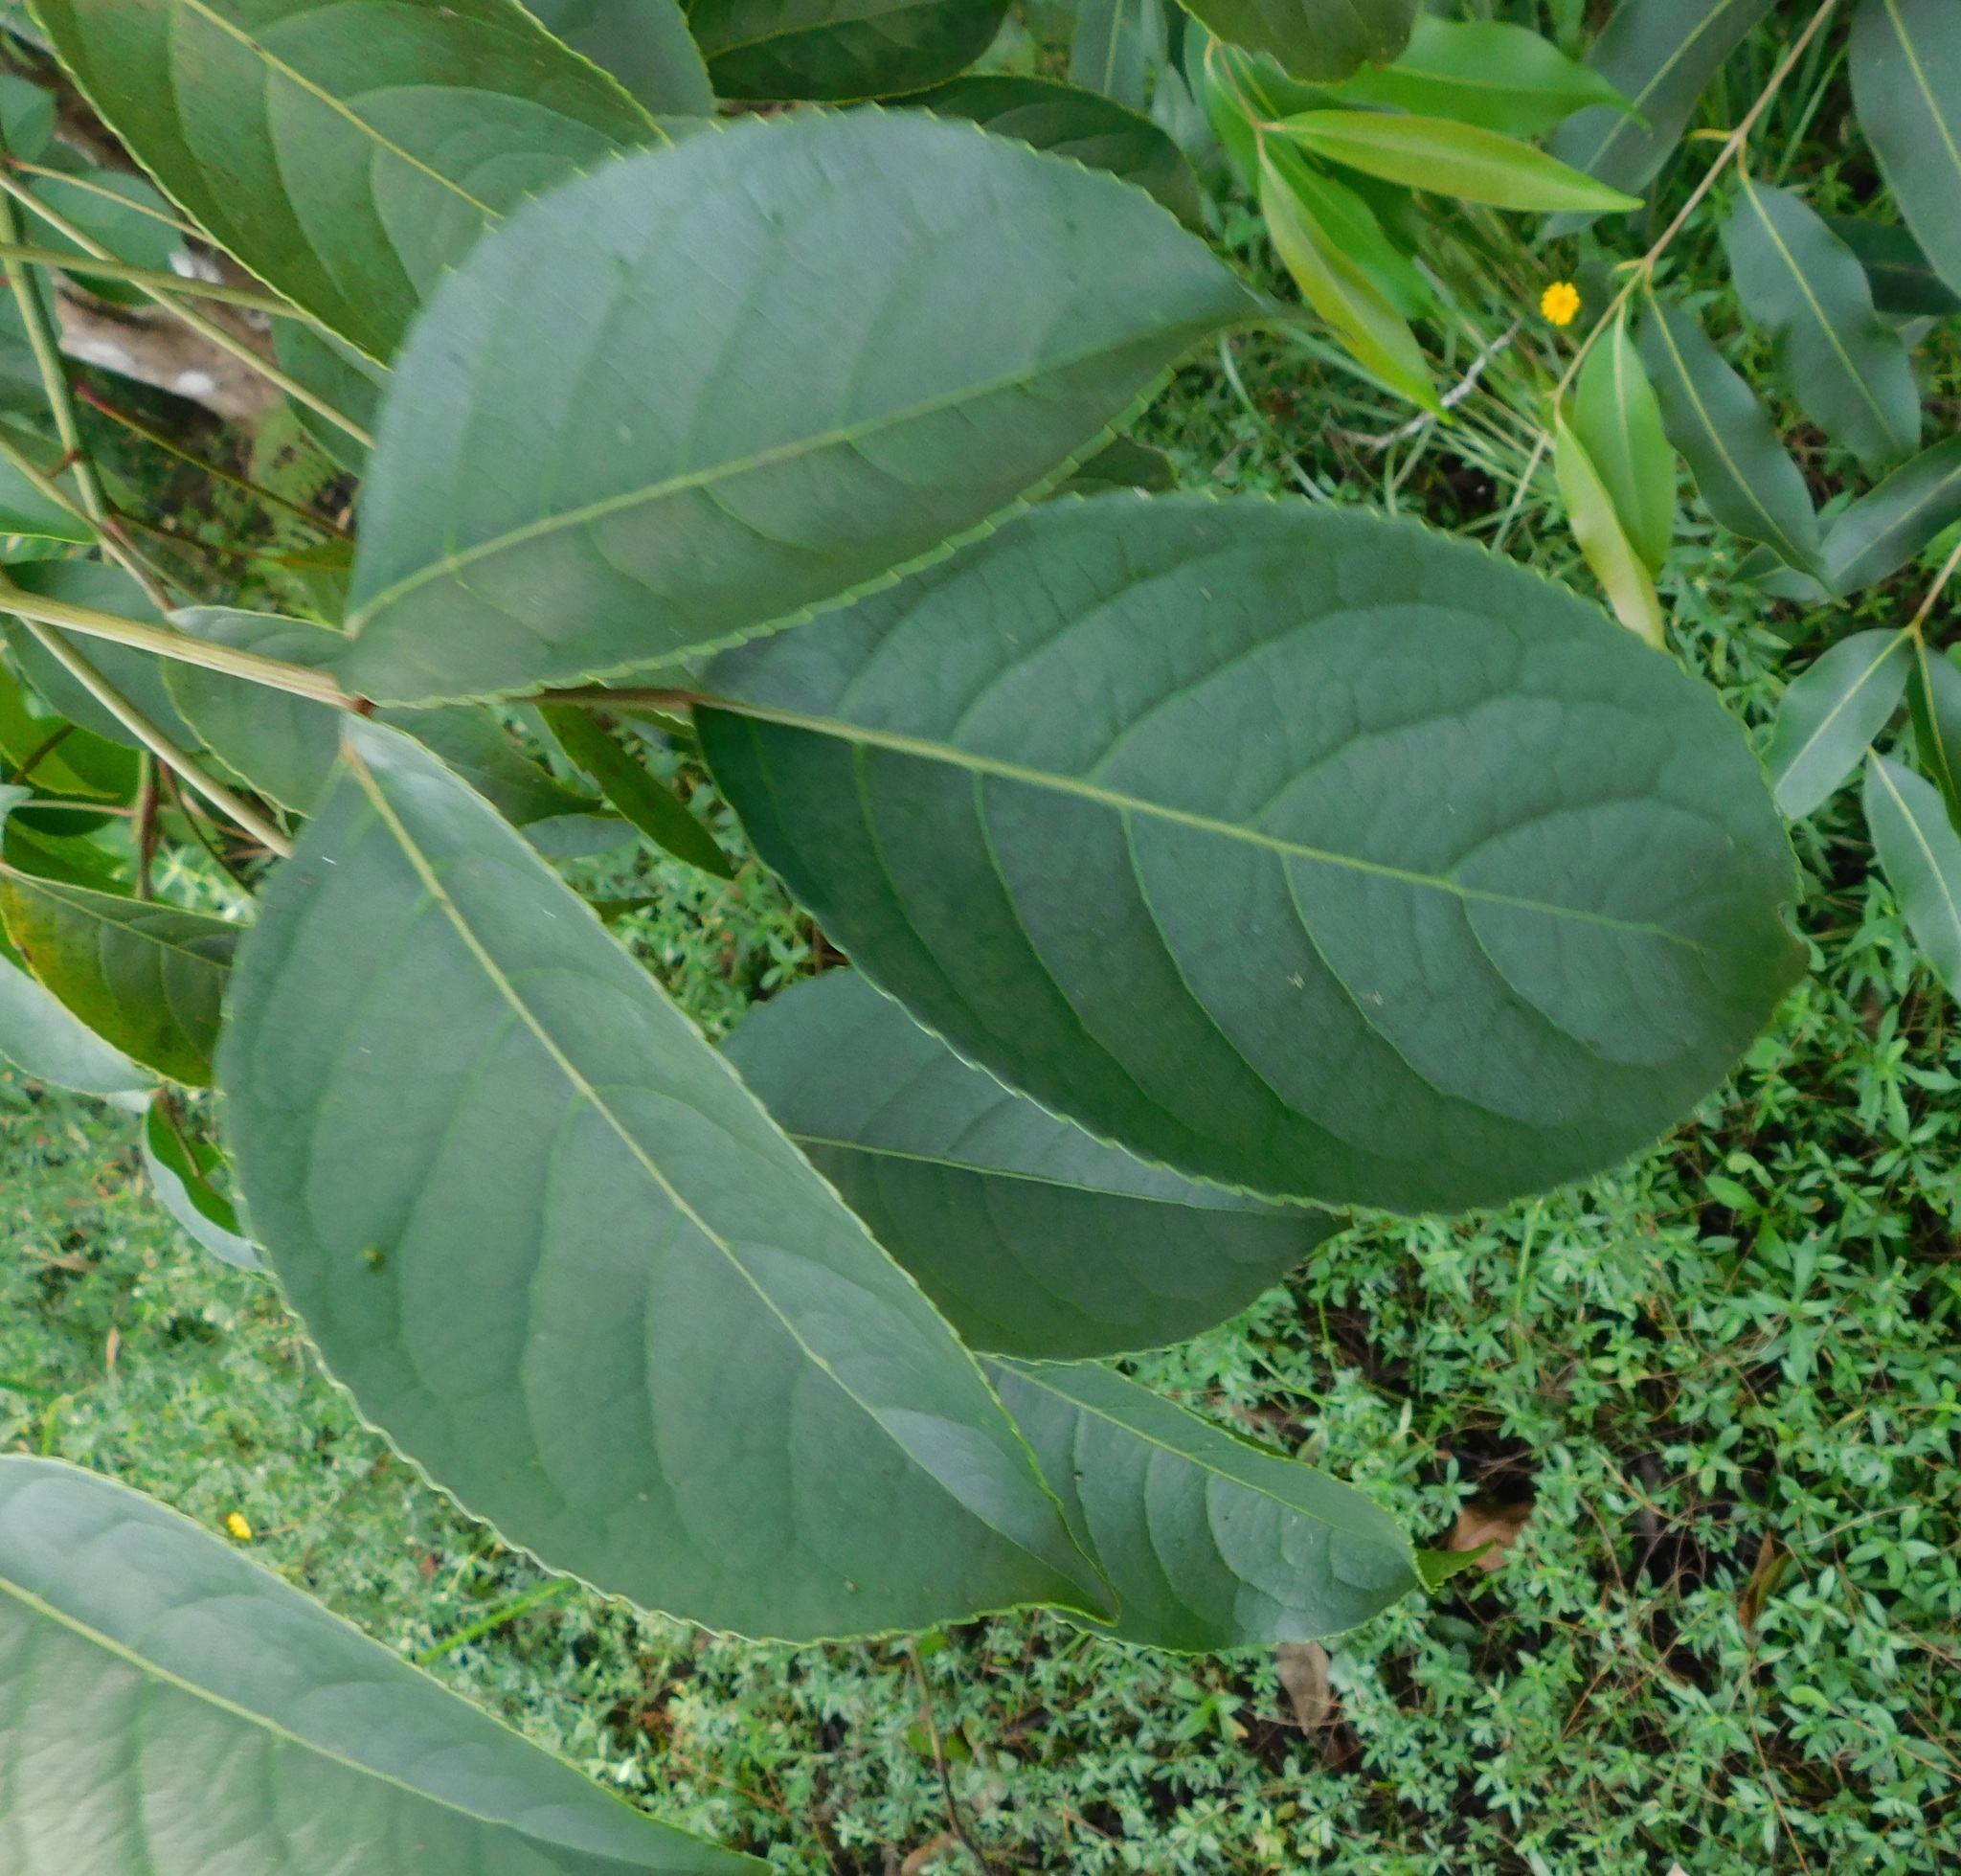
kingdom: Plantae
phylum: Tracheophyta
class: Magnoliopsida
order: Malpighiales
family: Phyllanthaceae
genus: Bischofia
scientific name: Bischofia javanica
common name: Javanese bishopwood
